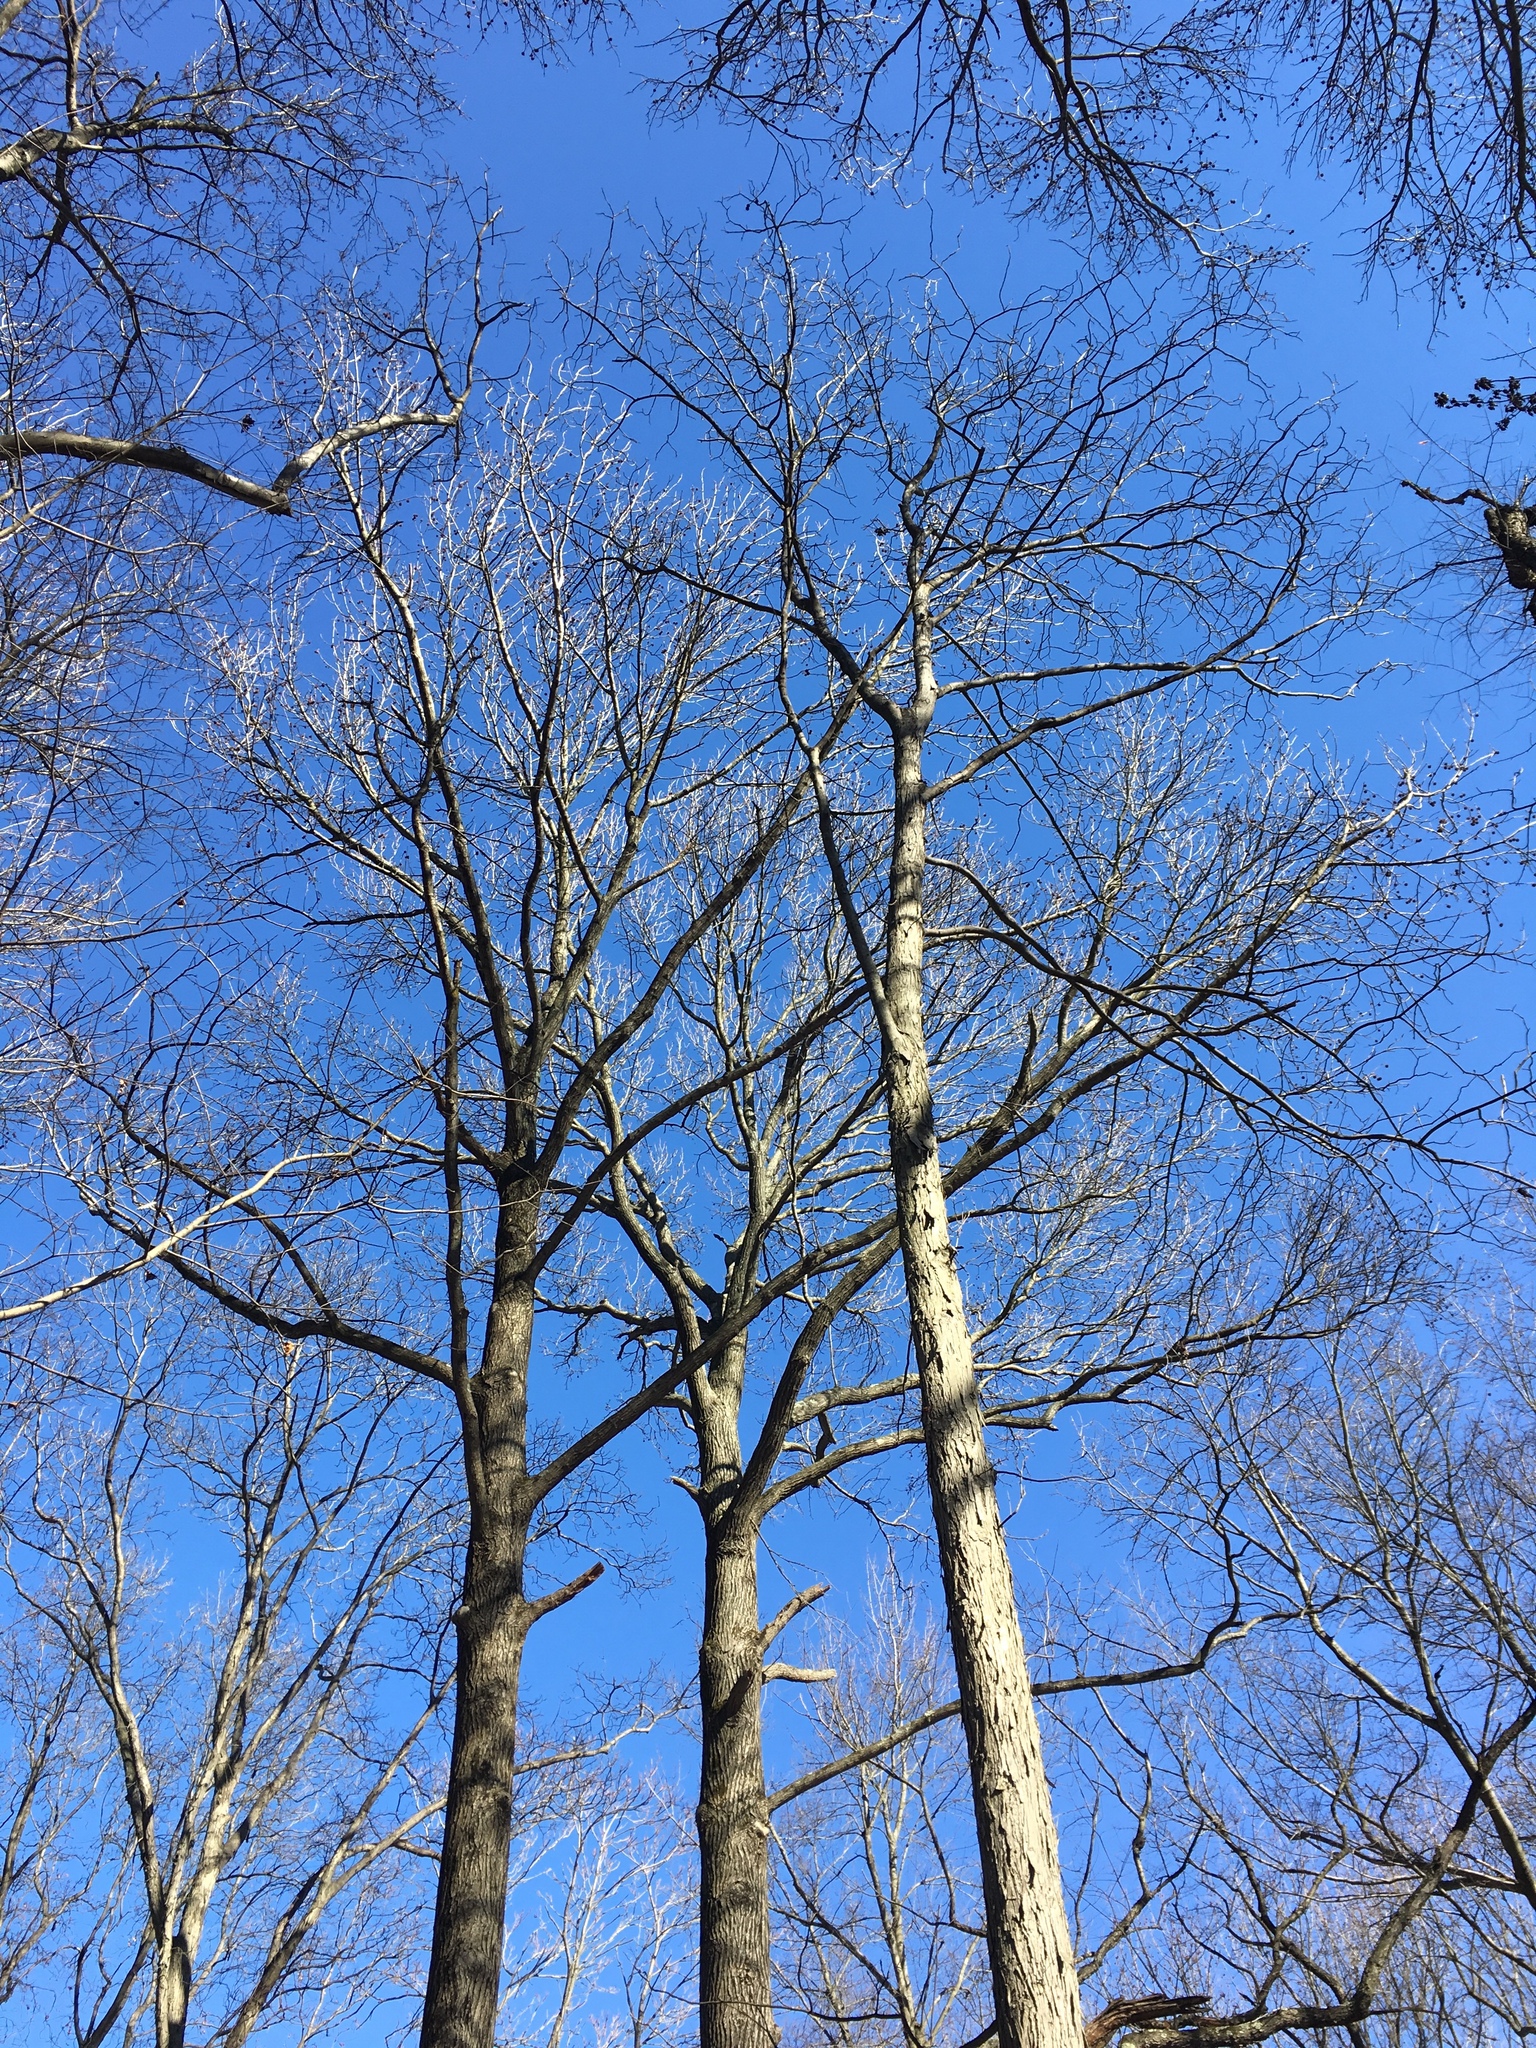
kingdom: Plantae
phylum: Tracheophyta
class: Magnoliopsida
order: Saxifragales
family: Altingiaceae
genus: Liquidambar
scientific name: Liquidambar styraciflua
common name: Sweet gum
